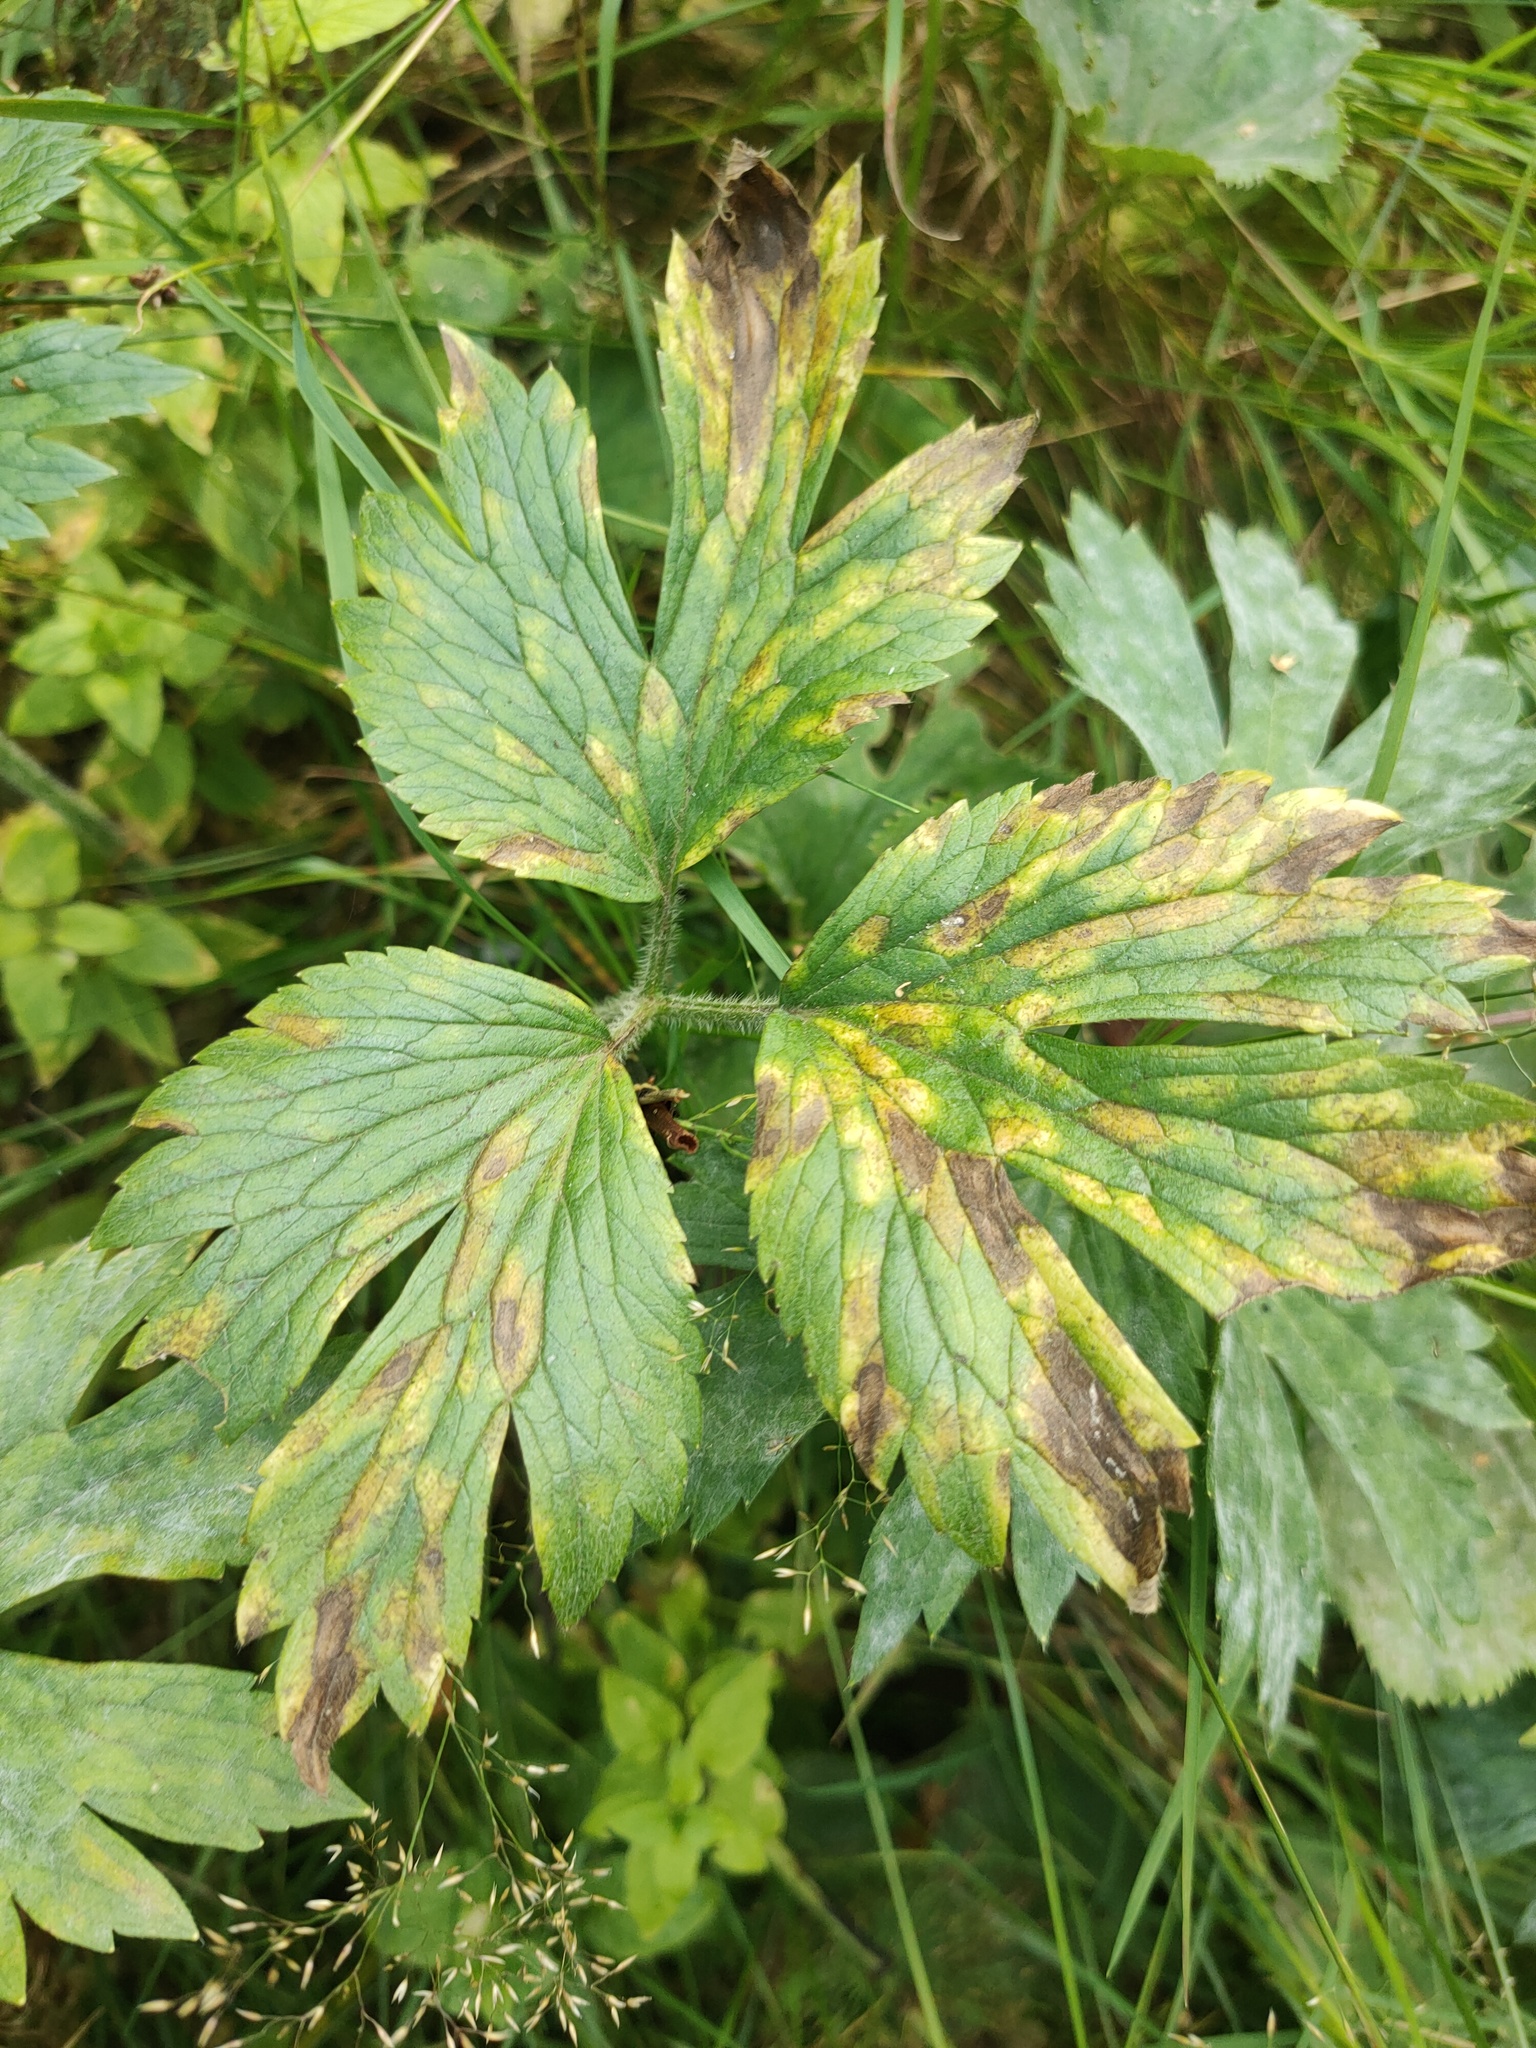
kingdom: Plantae
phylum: Tracheophyta
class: Magnoliopsida
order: Ranunculales
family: Ranunculaceae
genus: Ranunculus
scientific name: Ranunculus repens
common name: Creeping buttercup
